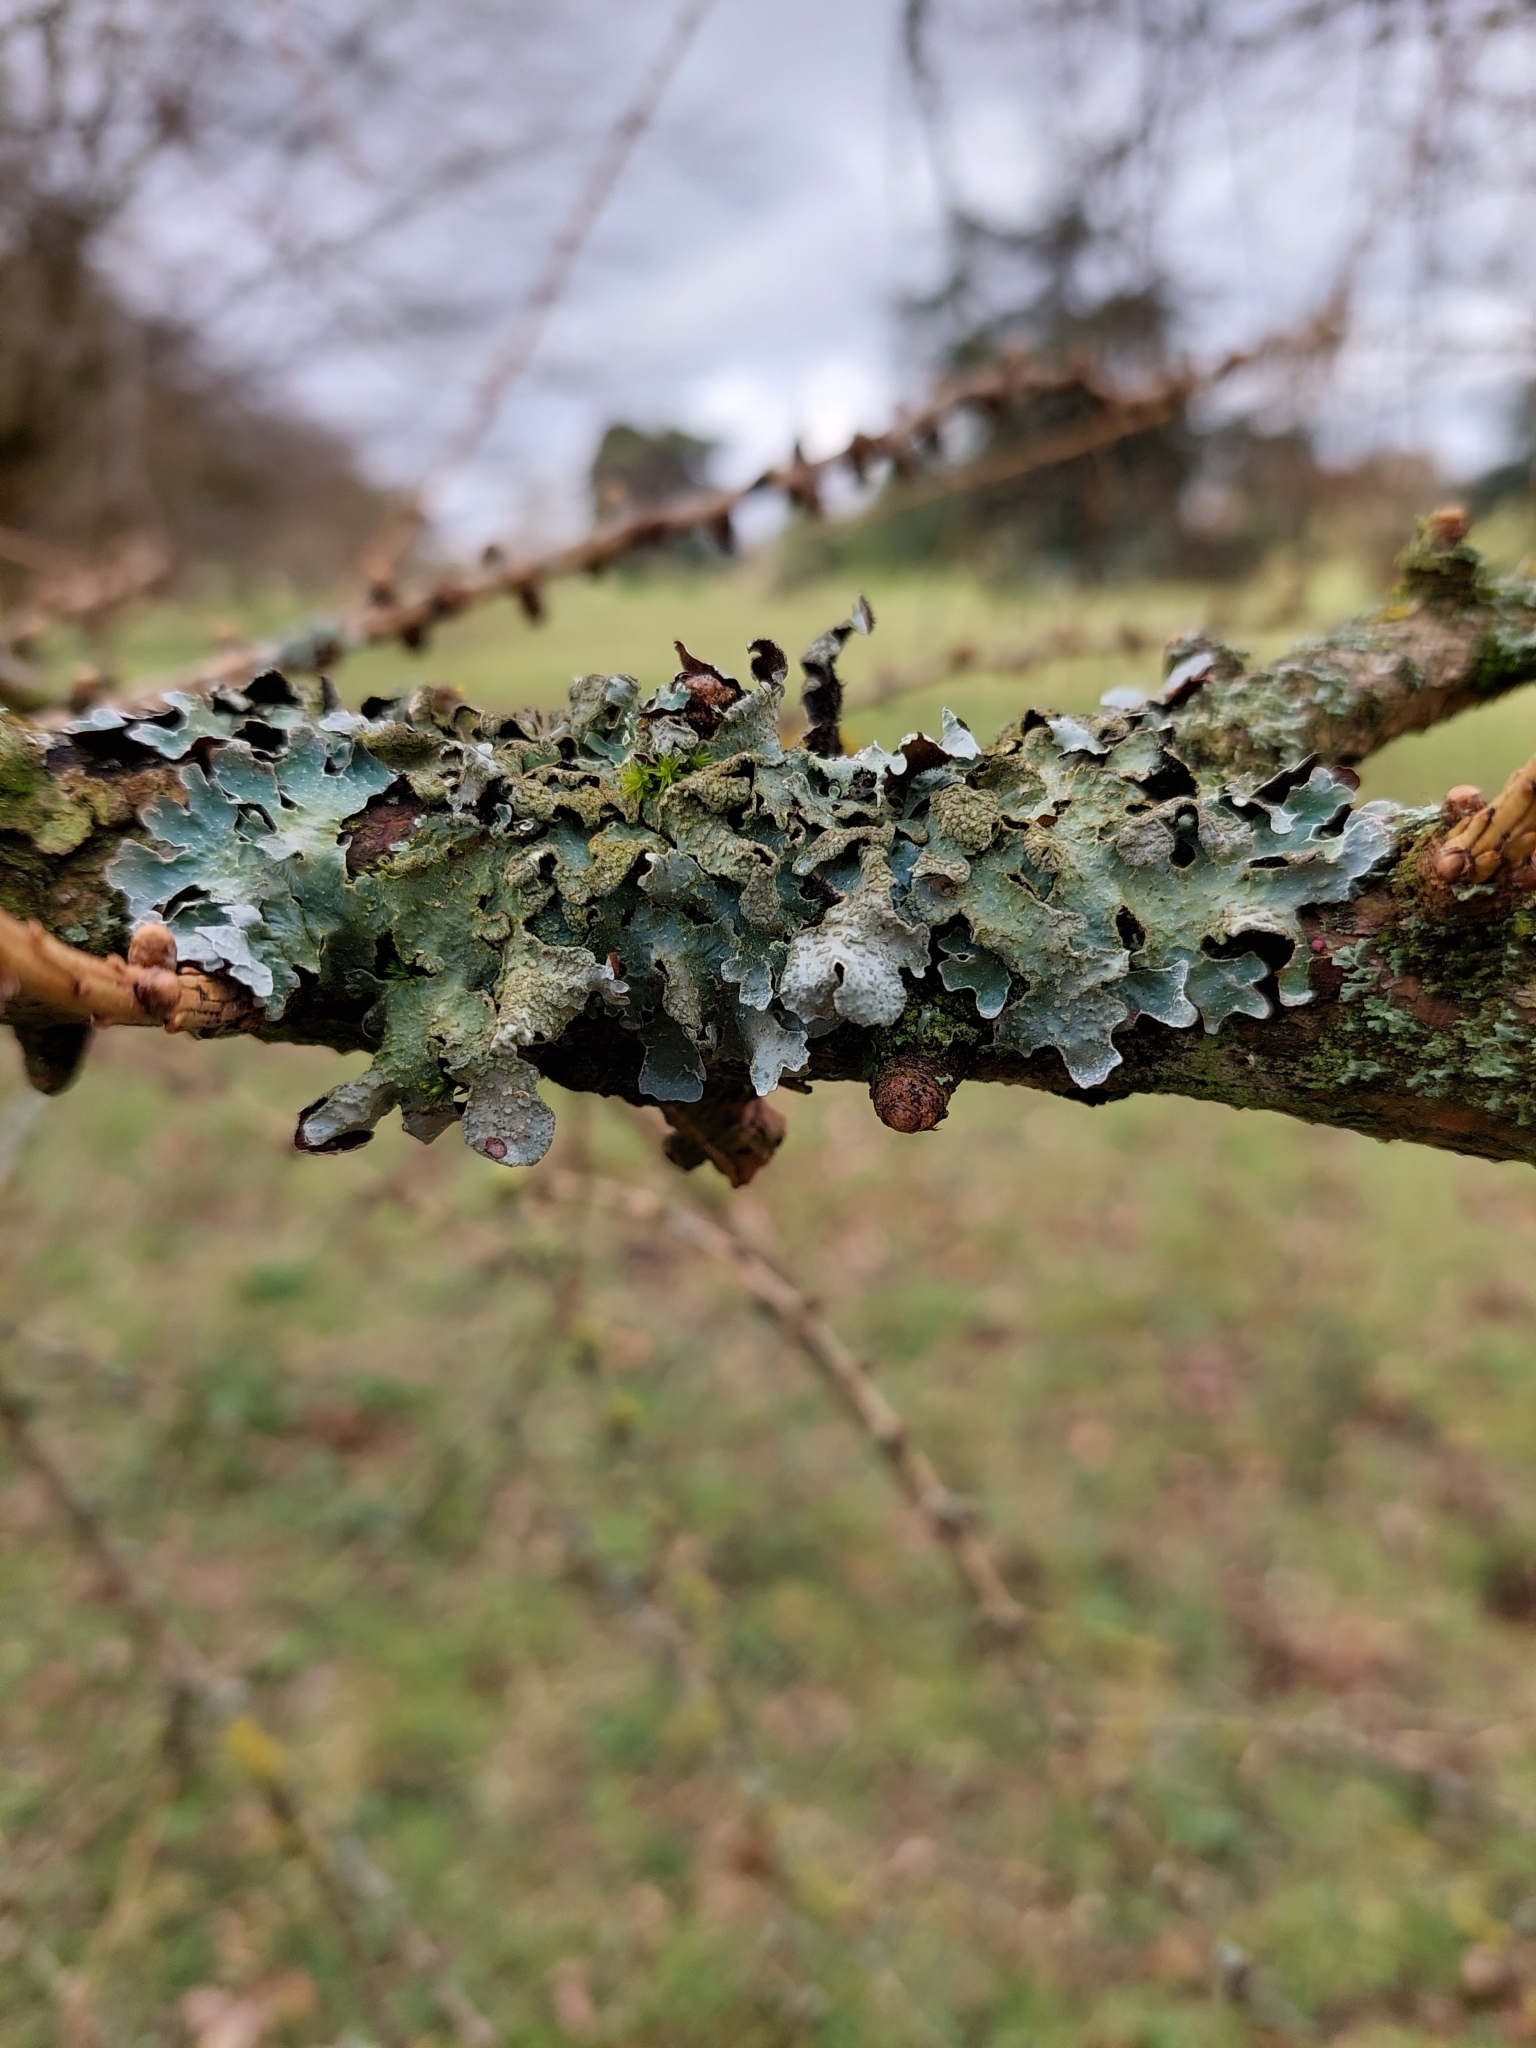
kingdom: Fungi
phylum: Ascomycota
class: Lecanoromycetes
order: Lecanorales
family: Parmeliaceae
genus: Parmelia
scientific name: Parmelia sulcata
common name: Netted shield lichen
